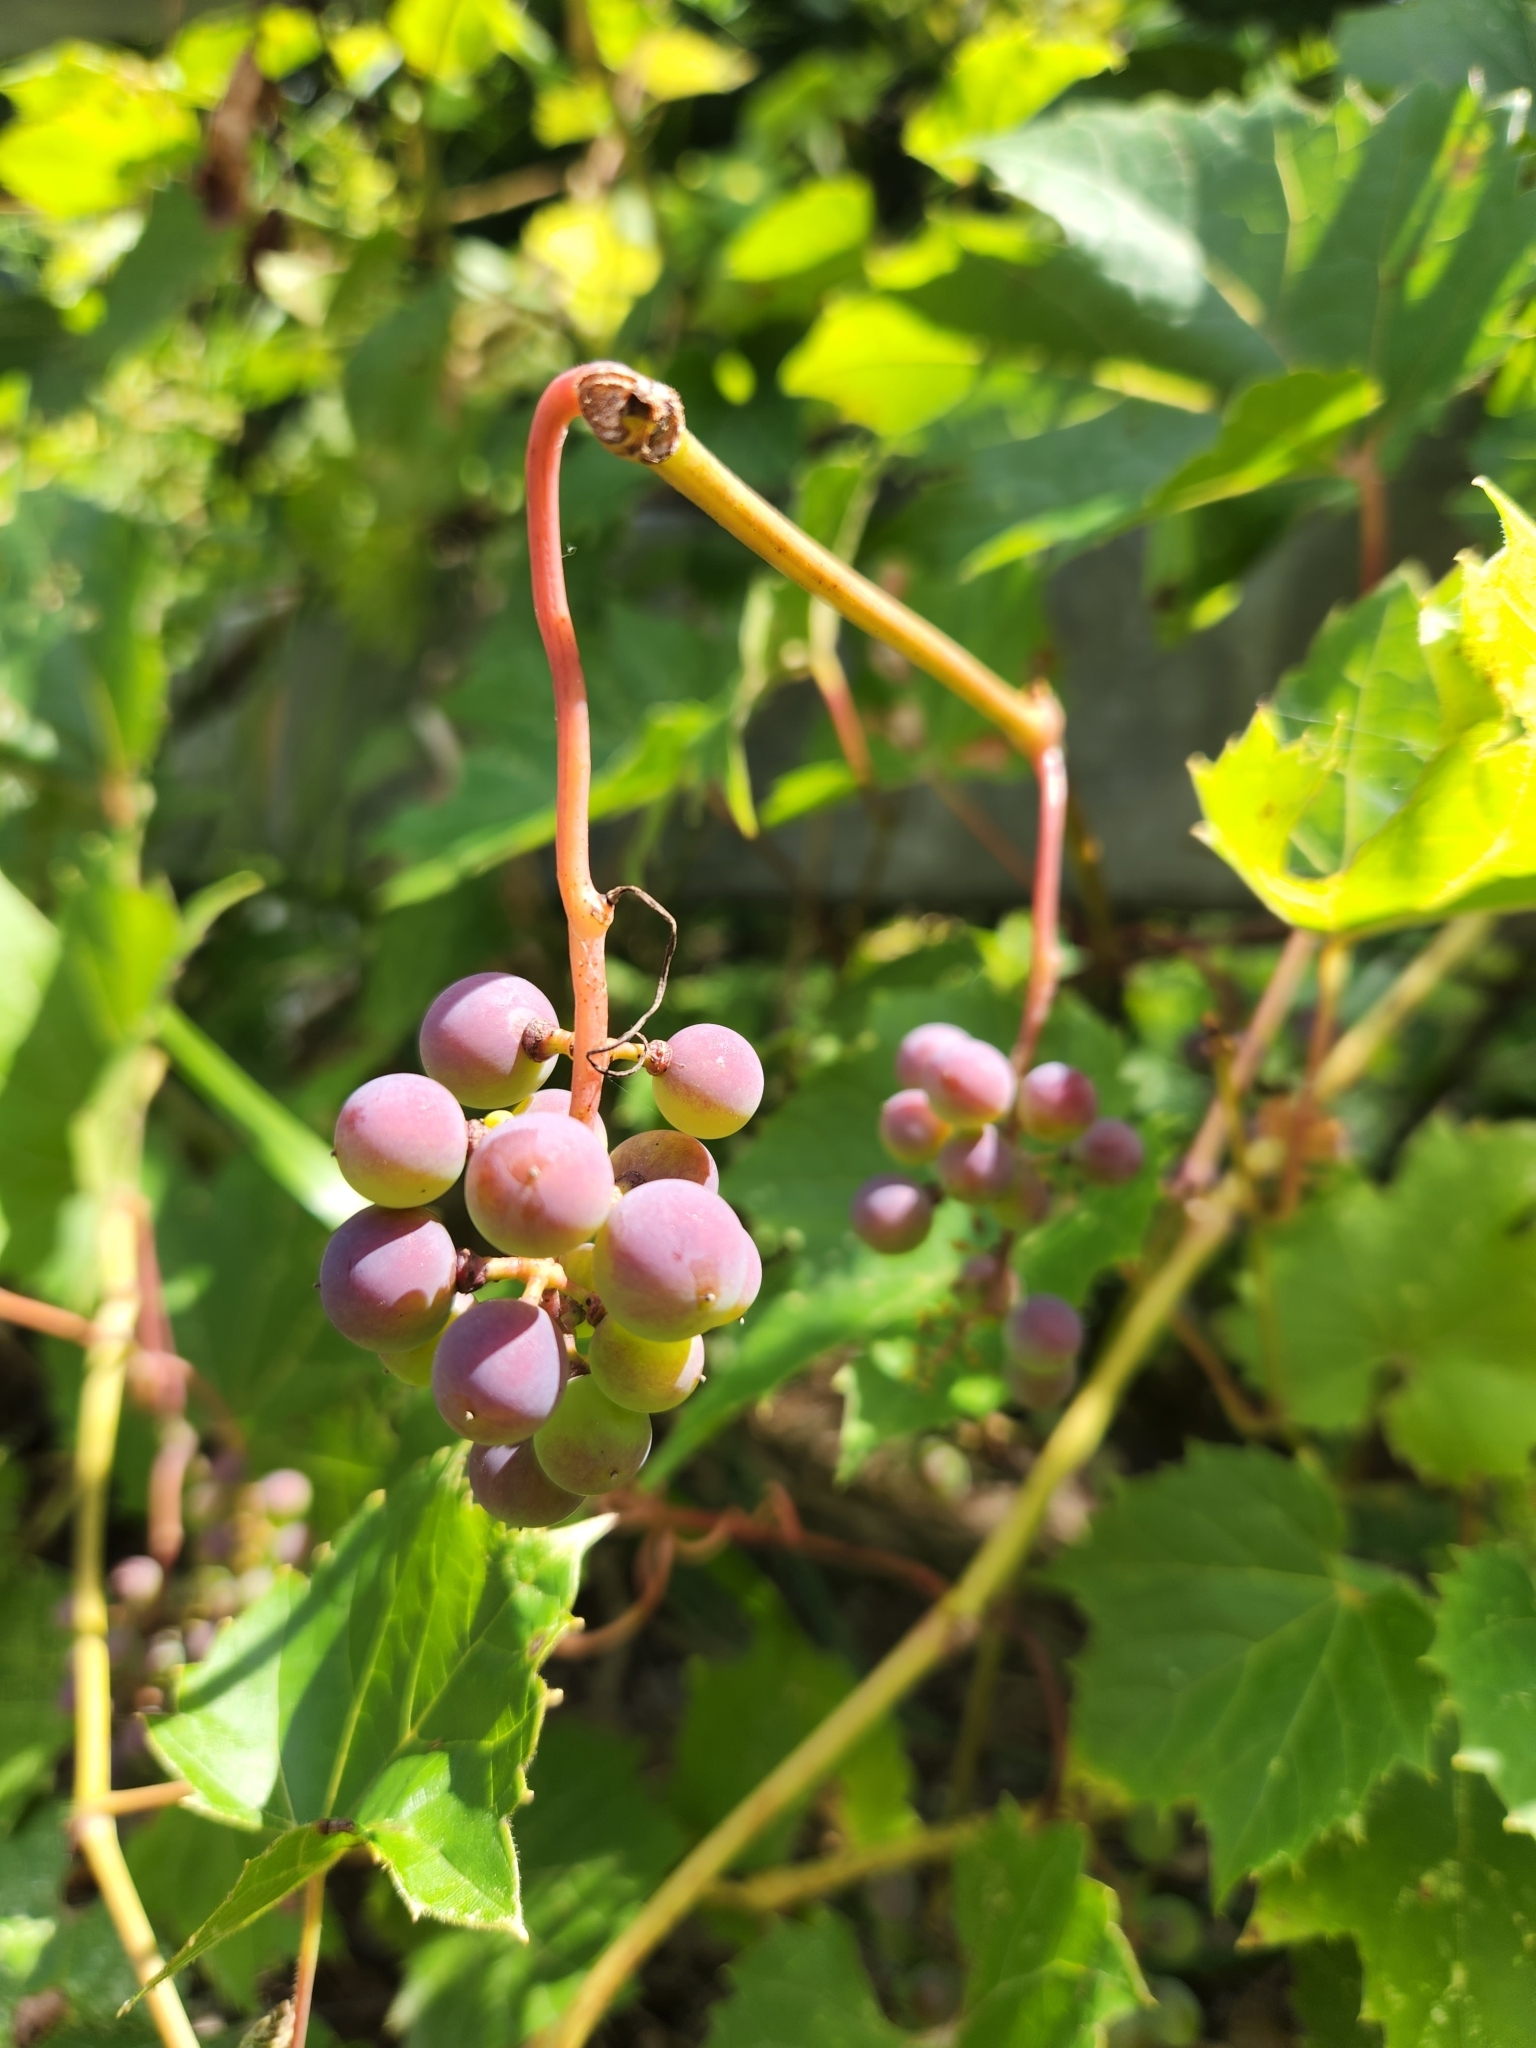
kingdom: Plantae
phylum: Tracheophyta
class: Magnoliopsida
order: Vitales
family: Vitaceae
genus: Vitis
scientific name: Vitis riparia
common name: Frost grape
